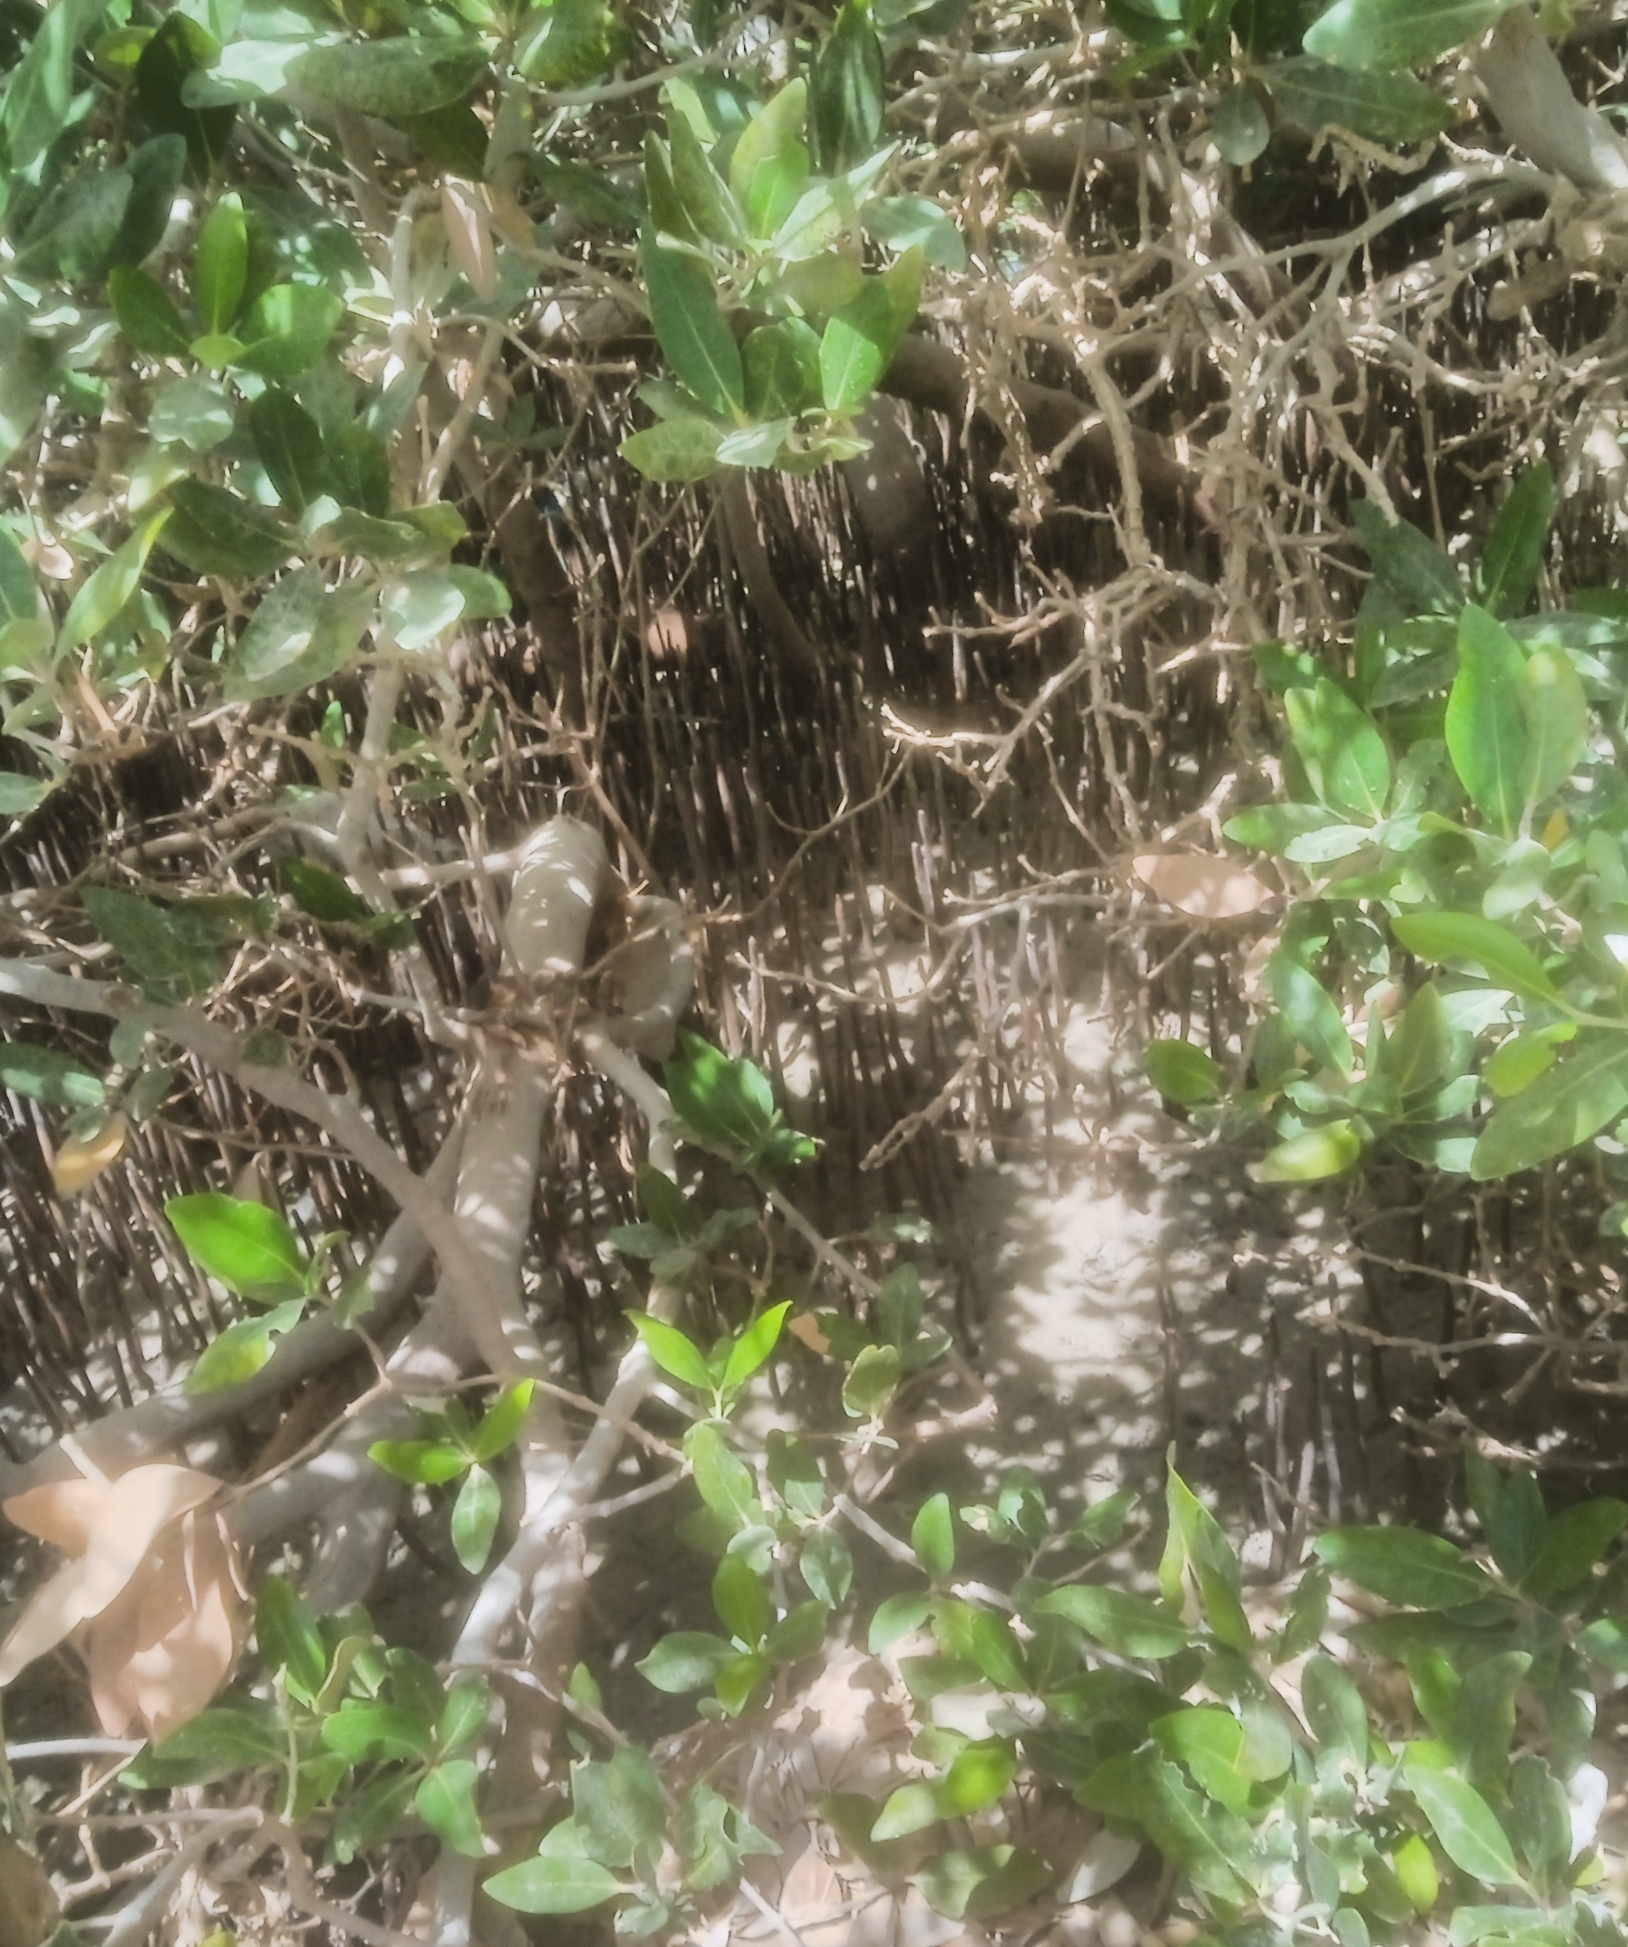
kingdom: Plantae
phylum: Tracheophyta
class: Magnoliopsida
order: Lamiales
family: Acanthaceae
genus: Avicennia
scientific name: Avicennia marina
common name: Gray mangrove
